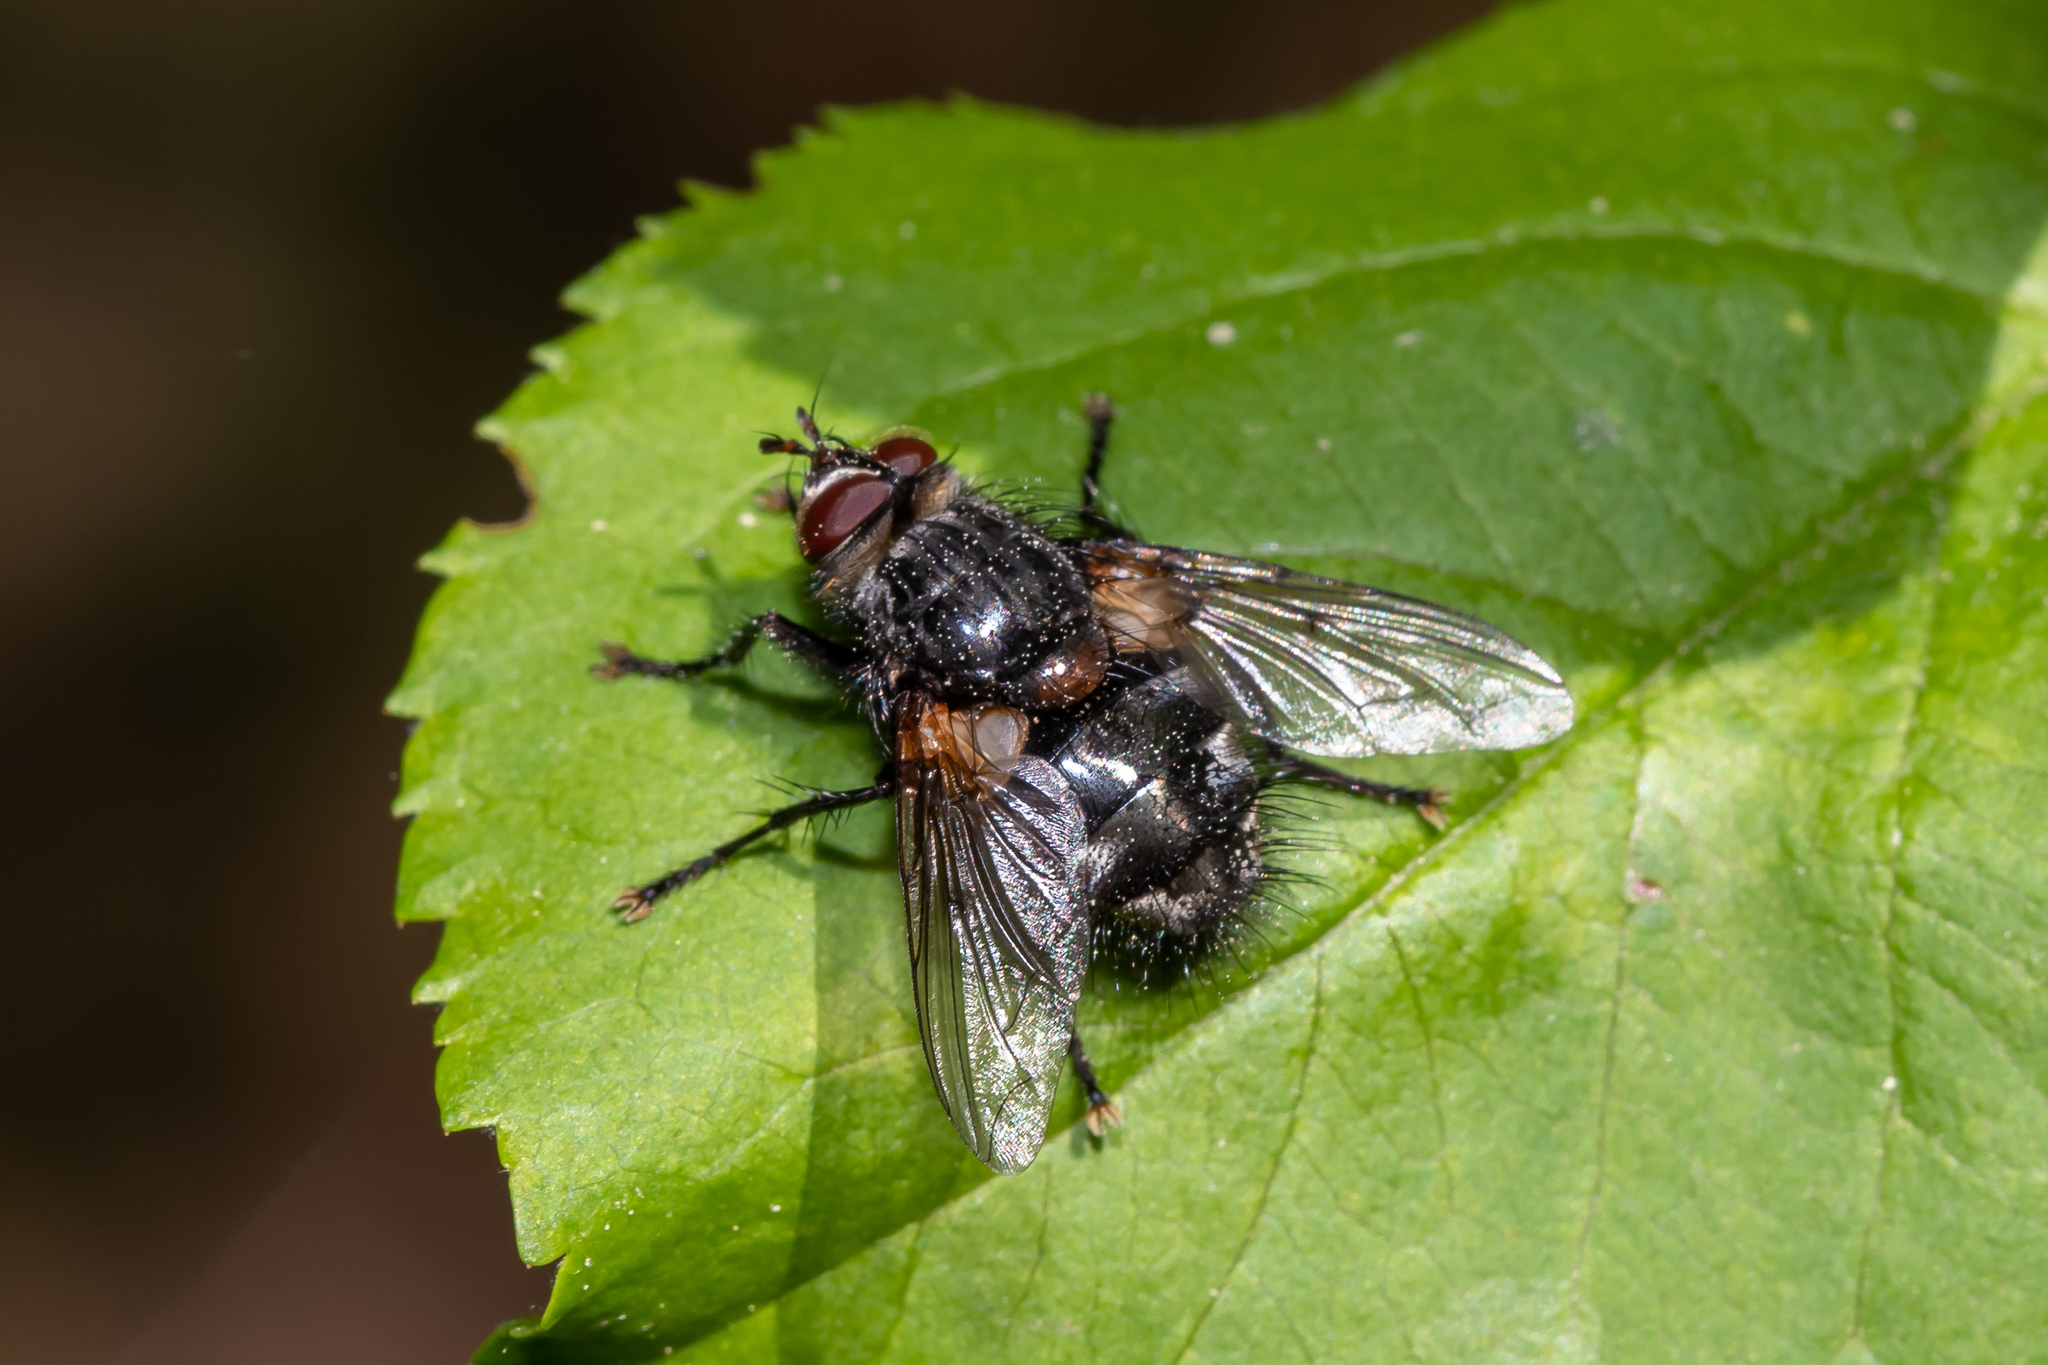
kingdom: Animalia
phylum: Arthropoda
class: Insecta
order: Diptera
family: Tachinidae
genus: Panzeria
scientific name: Panzeria rudis
